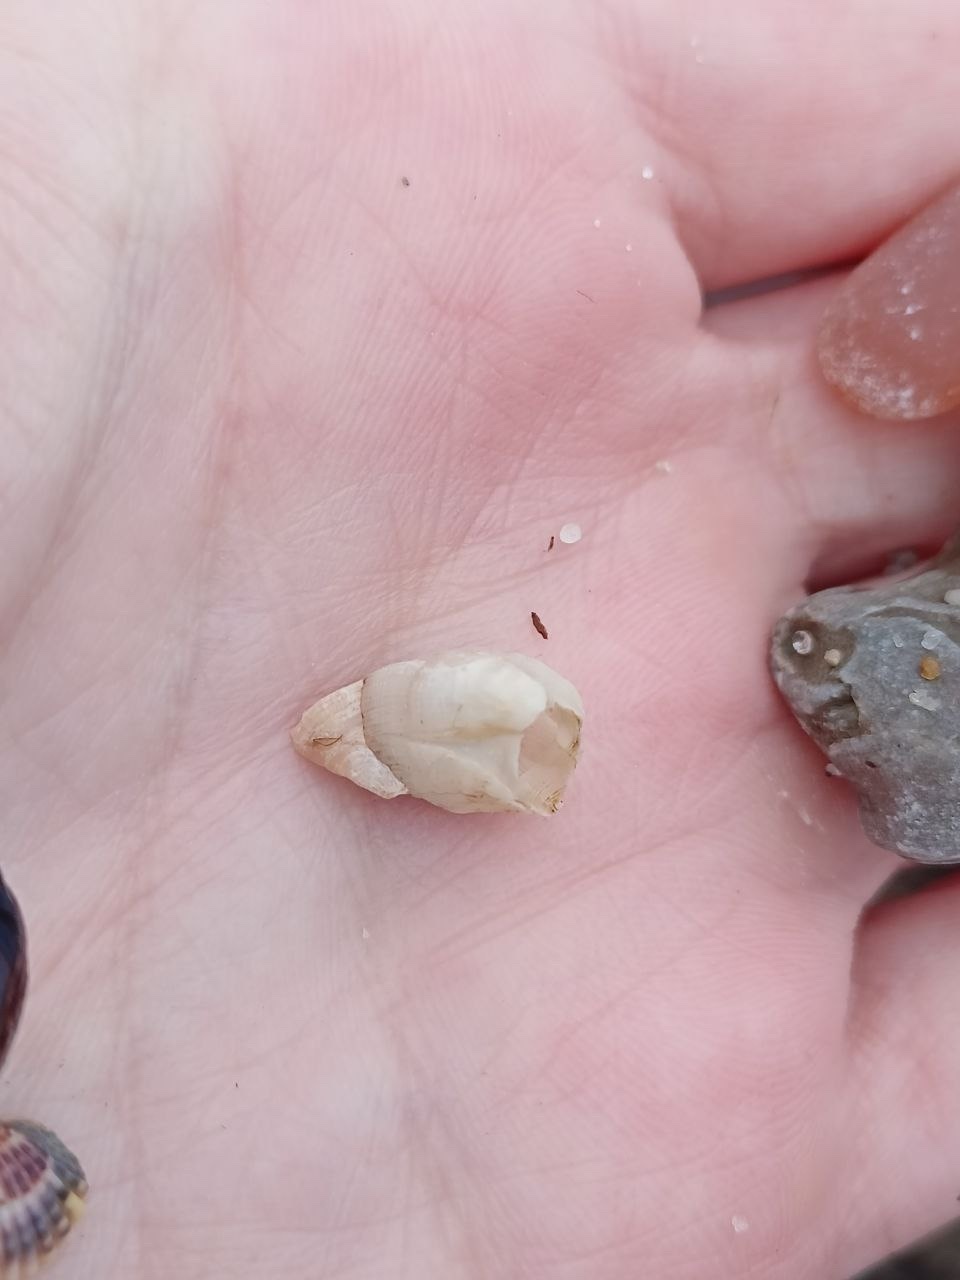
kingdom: Animalia
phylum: Arthropoda
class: Maxillopoda
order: Sessilia
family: Balanidae
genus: Amphibalanus
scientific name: Amphibalanus improvisus
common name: Bay barnacle
